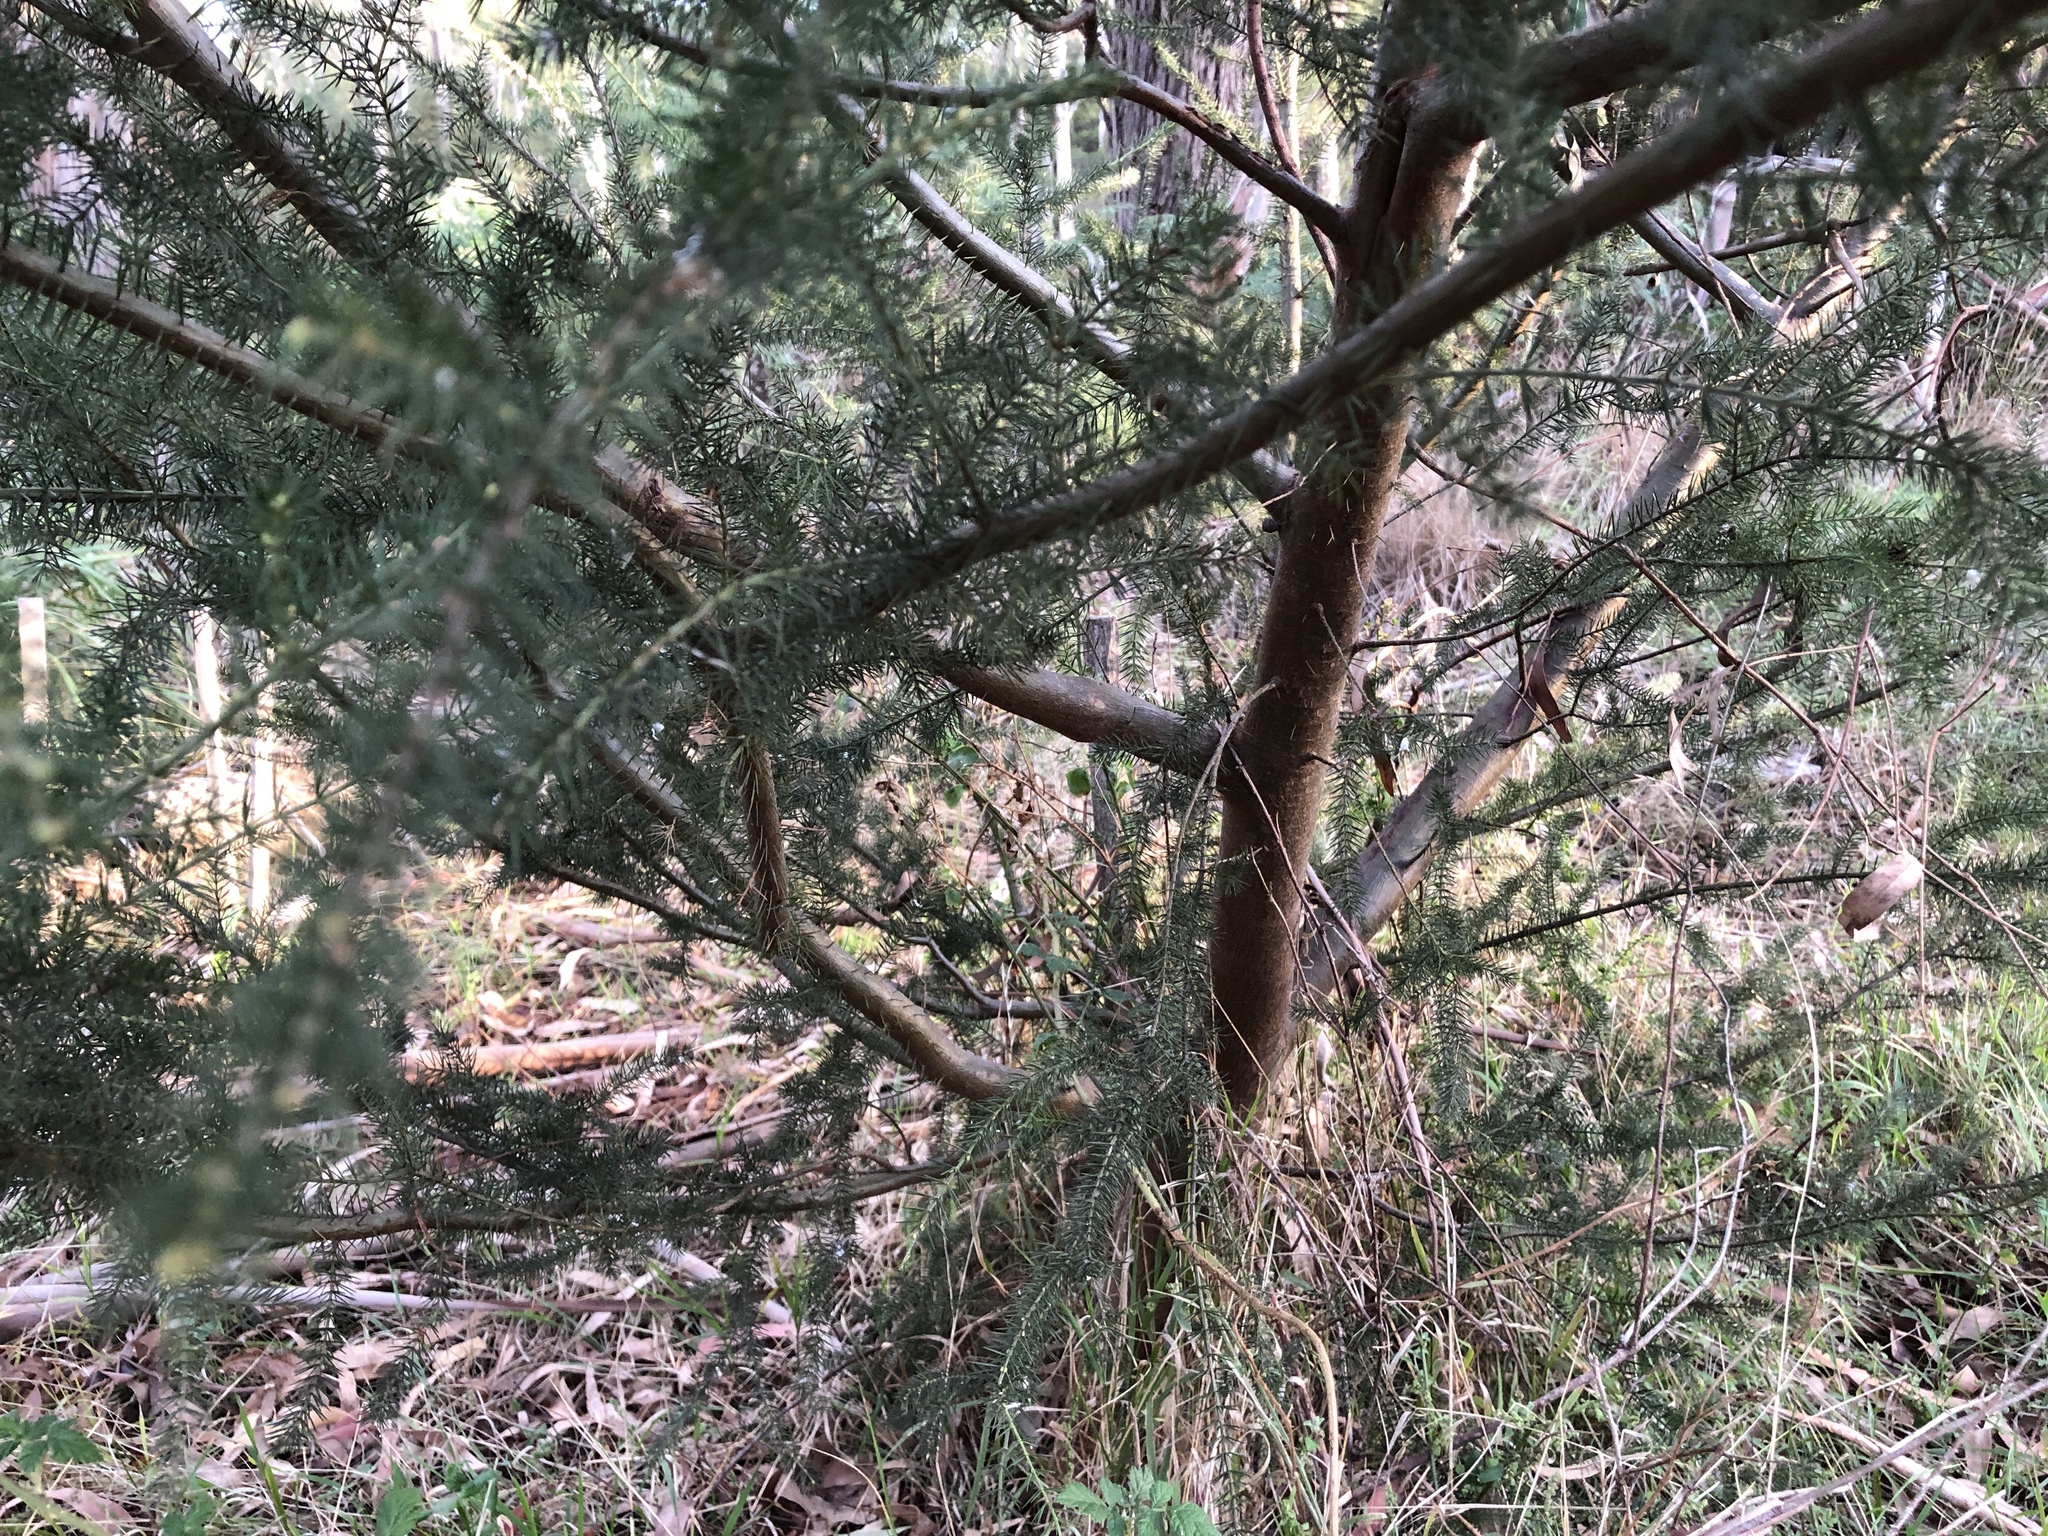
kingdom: Plantae
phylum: Tracheophyta
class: Magnoliopsida
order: Fabales
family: Fabaceae
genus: Acacia
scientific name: Acacia verticillata
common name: Prickly moses
